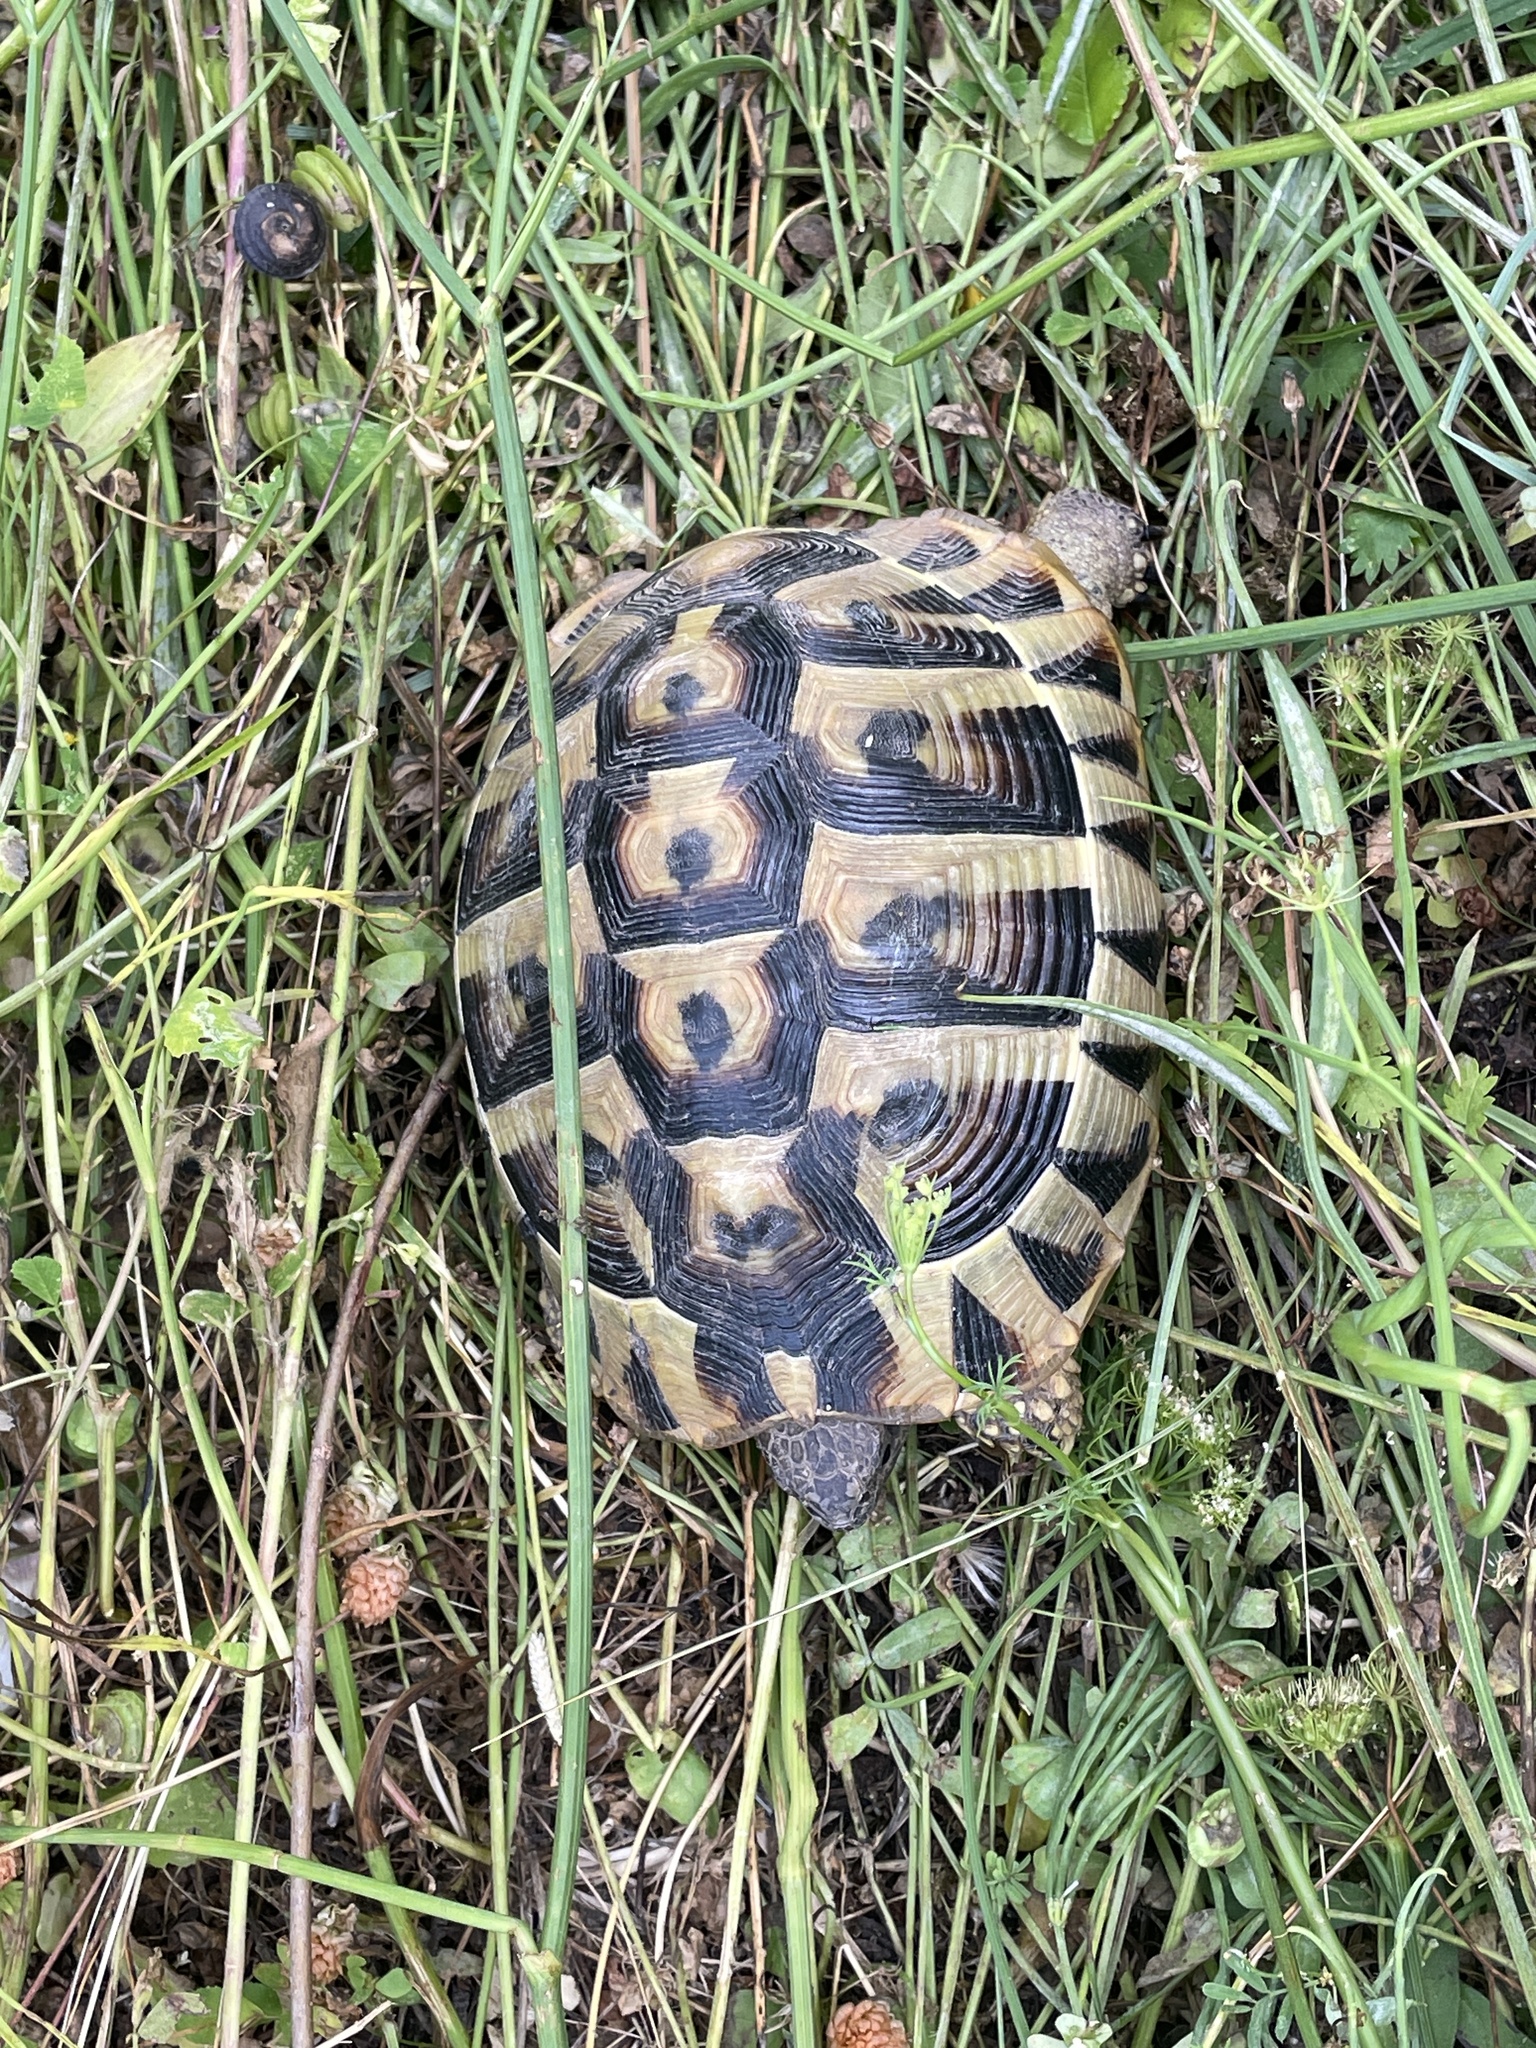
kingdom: Animalia
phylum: Chordata
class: Testudines
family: Testudinidae
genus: Testudo
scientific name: Testudo hermanni
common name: Hermann's tortoise
